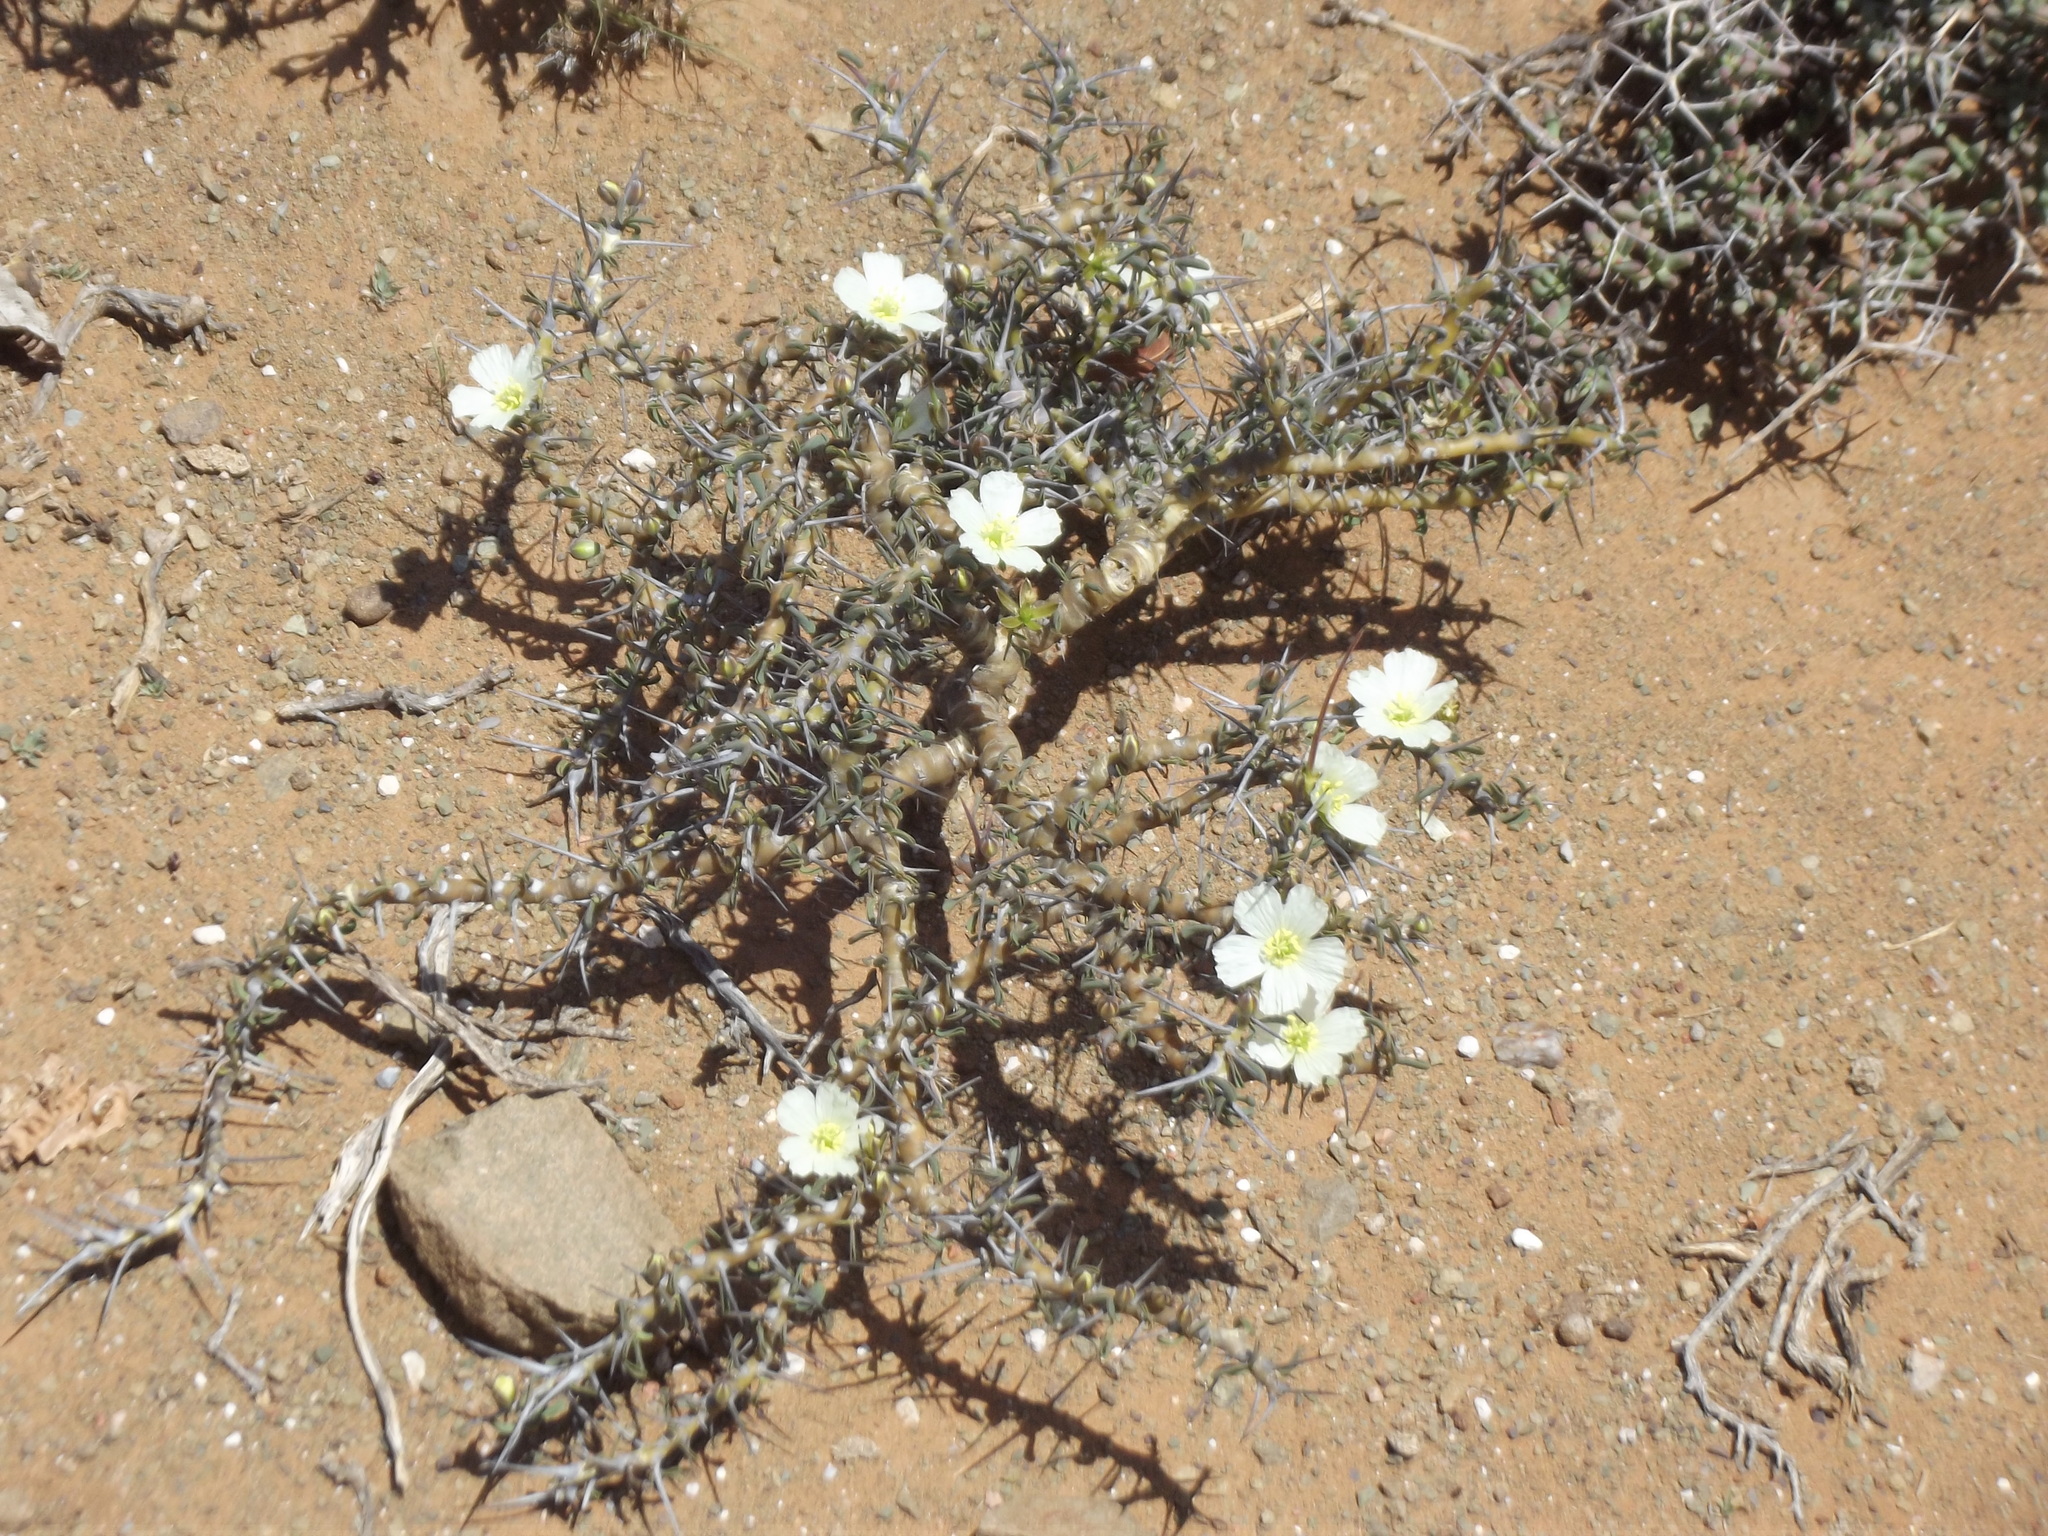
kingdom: Plantae
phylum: Tracheophyta
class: Magnoliopsida
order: Geraniales
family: Geraniaceae
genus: Monsonia
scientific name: Monsonia camdeboensis
